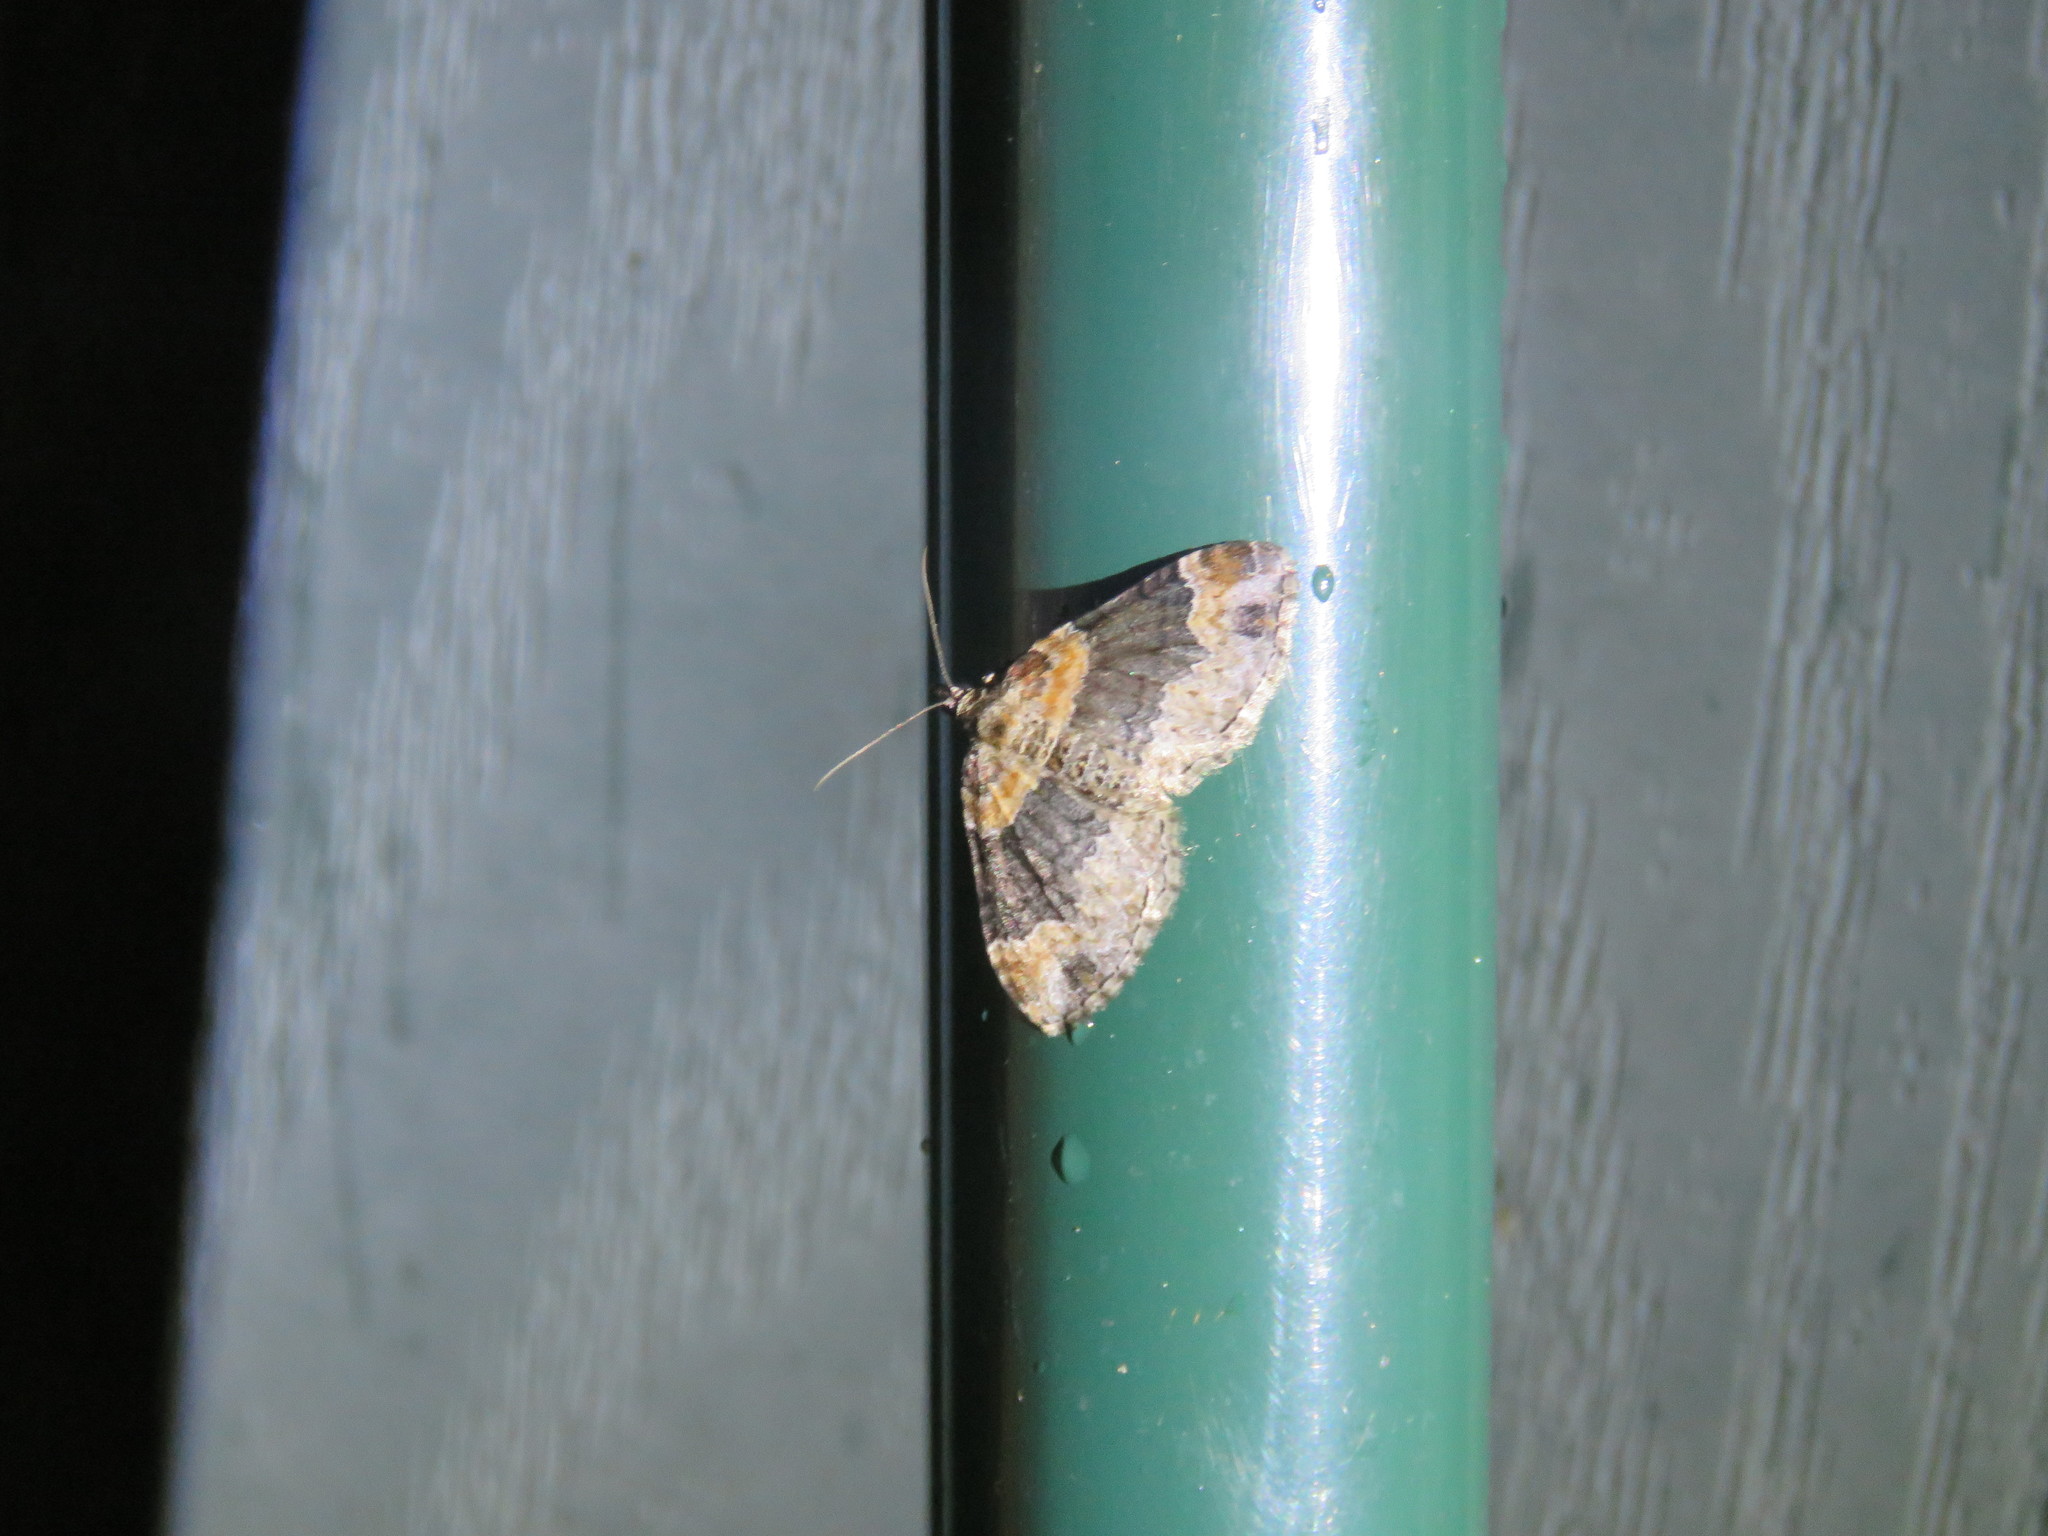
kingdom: Animalia
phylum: Arthropoda
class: Insecta
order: Lepidoptera
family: Geometridae
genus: Xanthorhoe
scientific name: Xanthorhoe ferrugata
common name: Dark-barred twin-spot carpet
